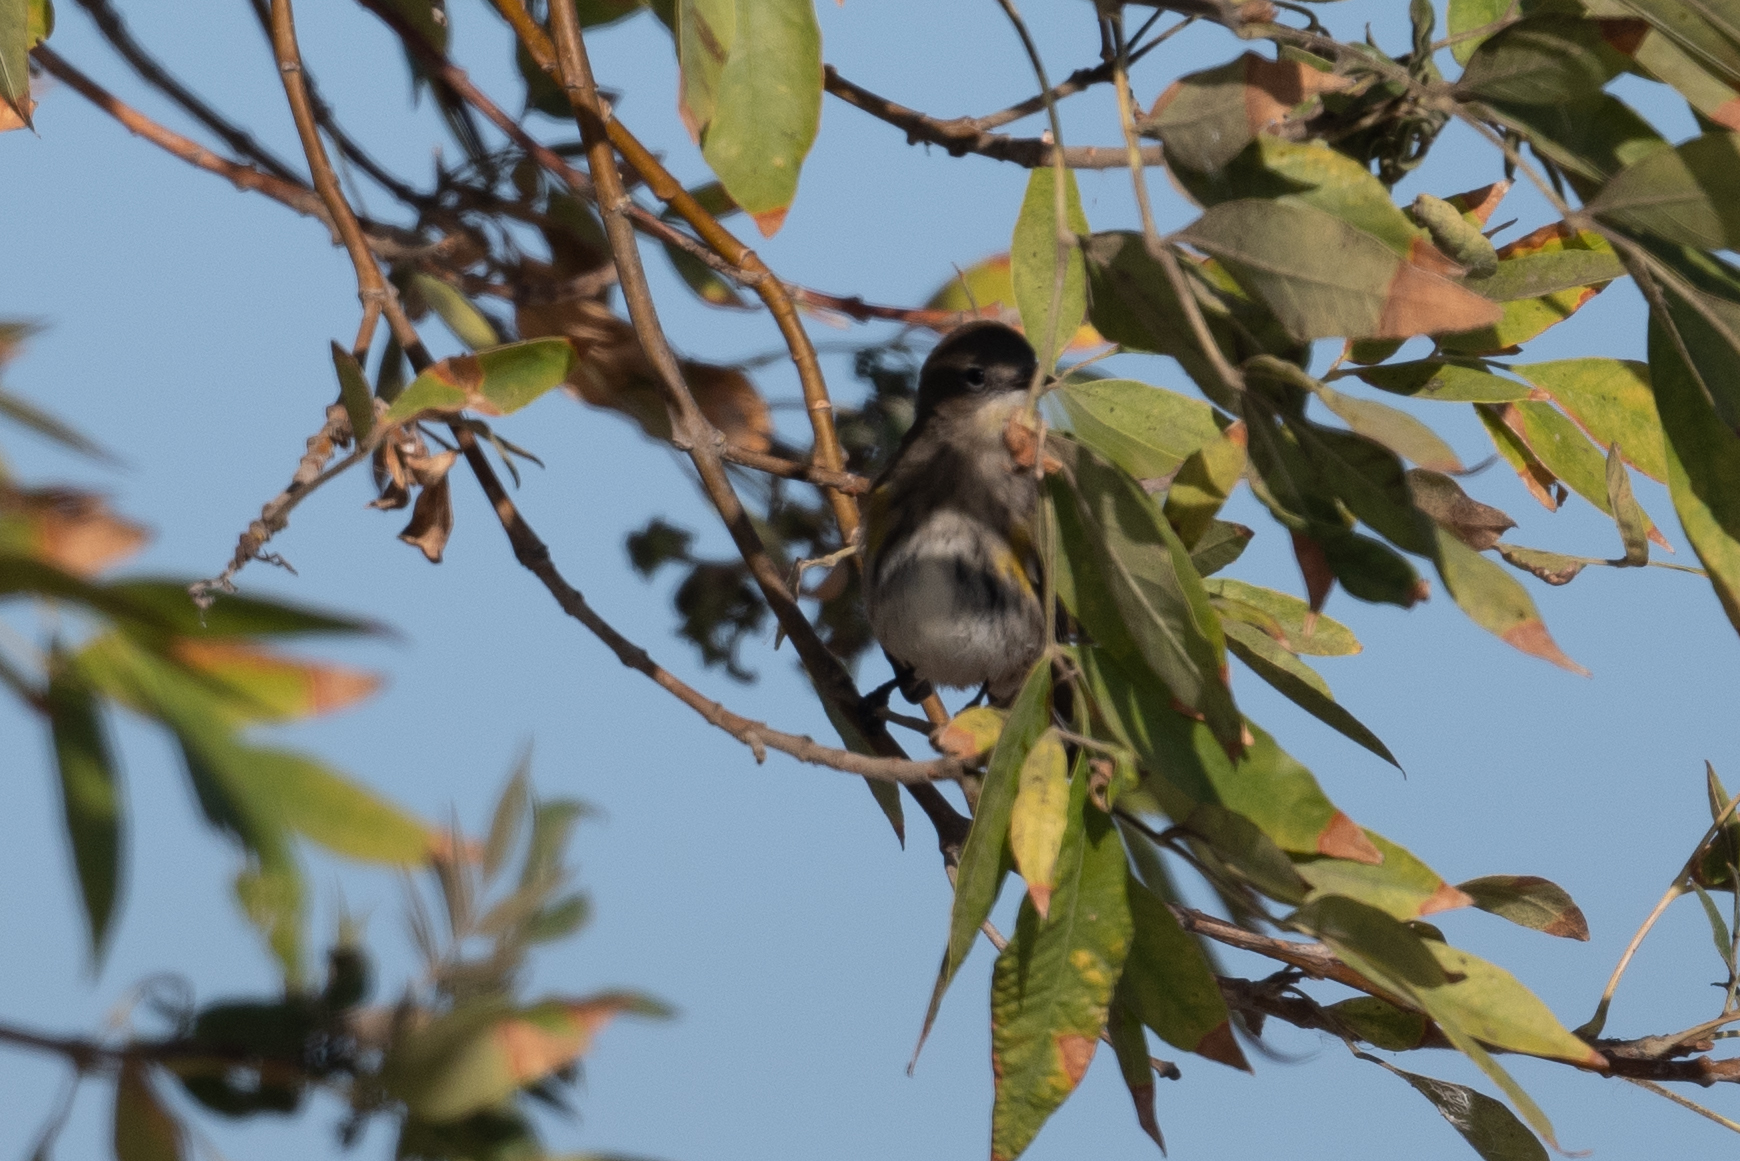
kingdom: Animalia
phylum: Chordata
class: Aves
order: Passeriformes
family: Parulidae
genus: Setophaga
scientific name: Setophaga coronata
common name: Myrtle warbler
